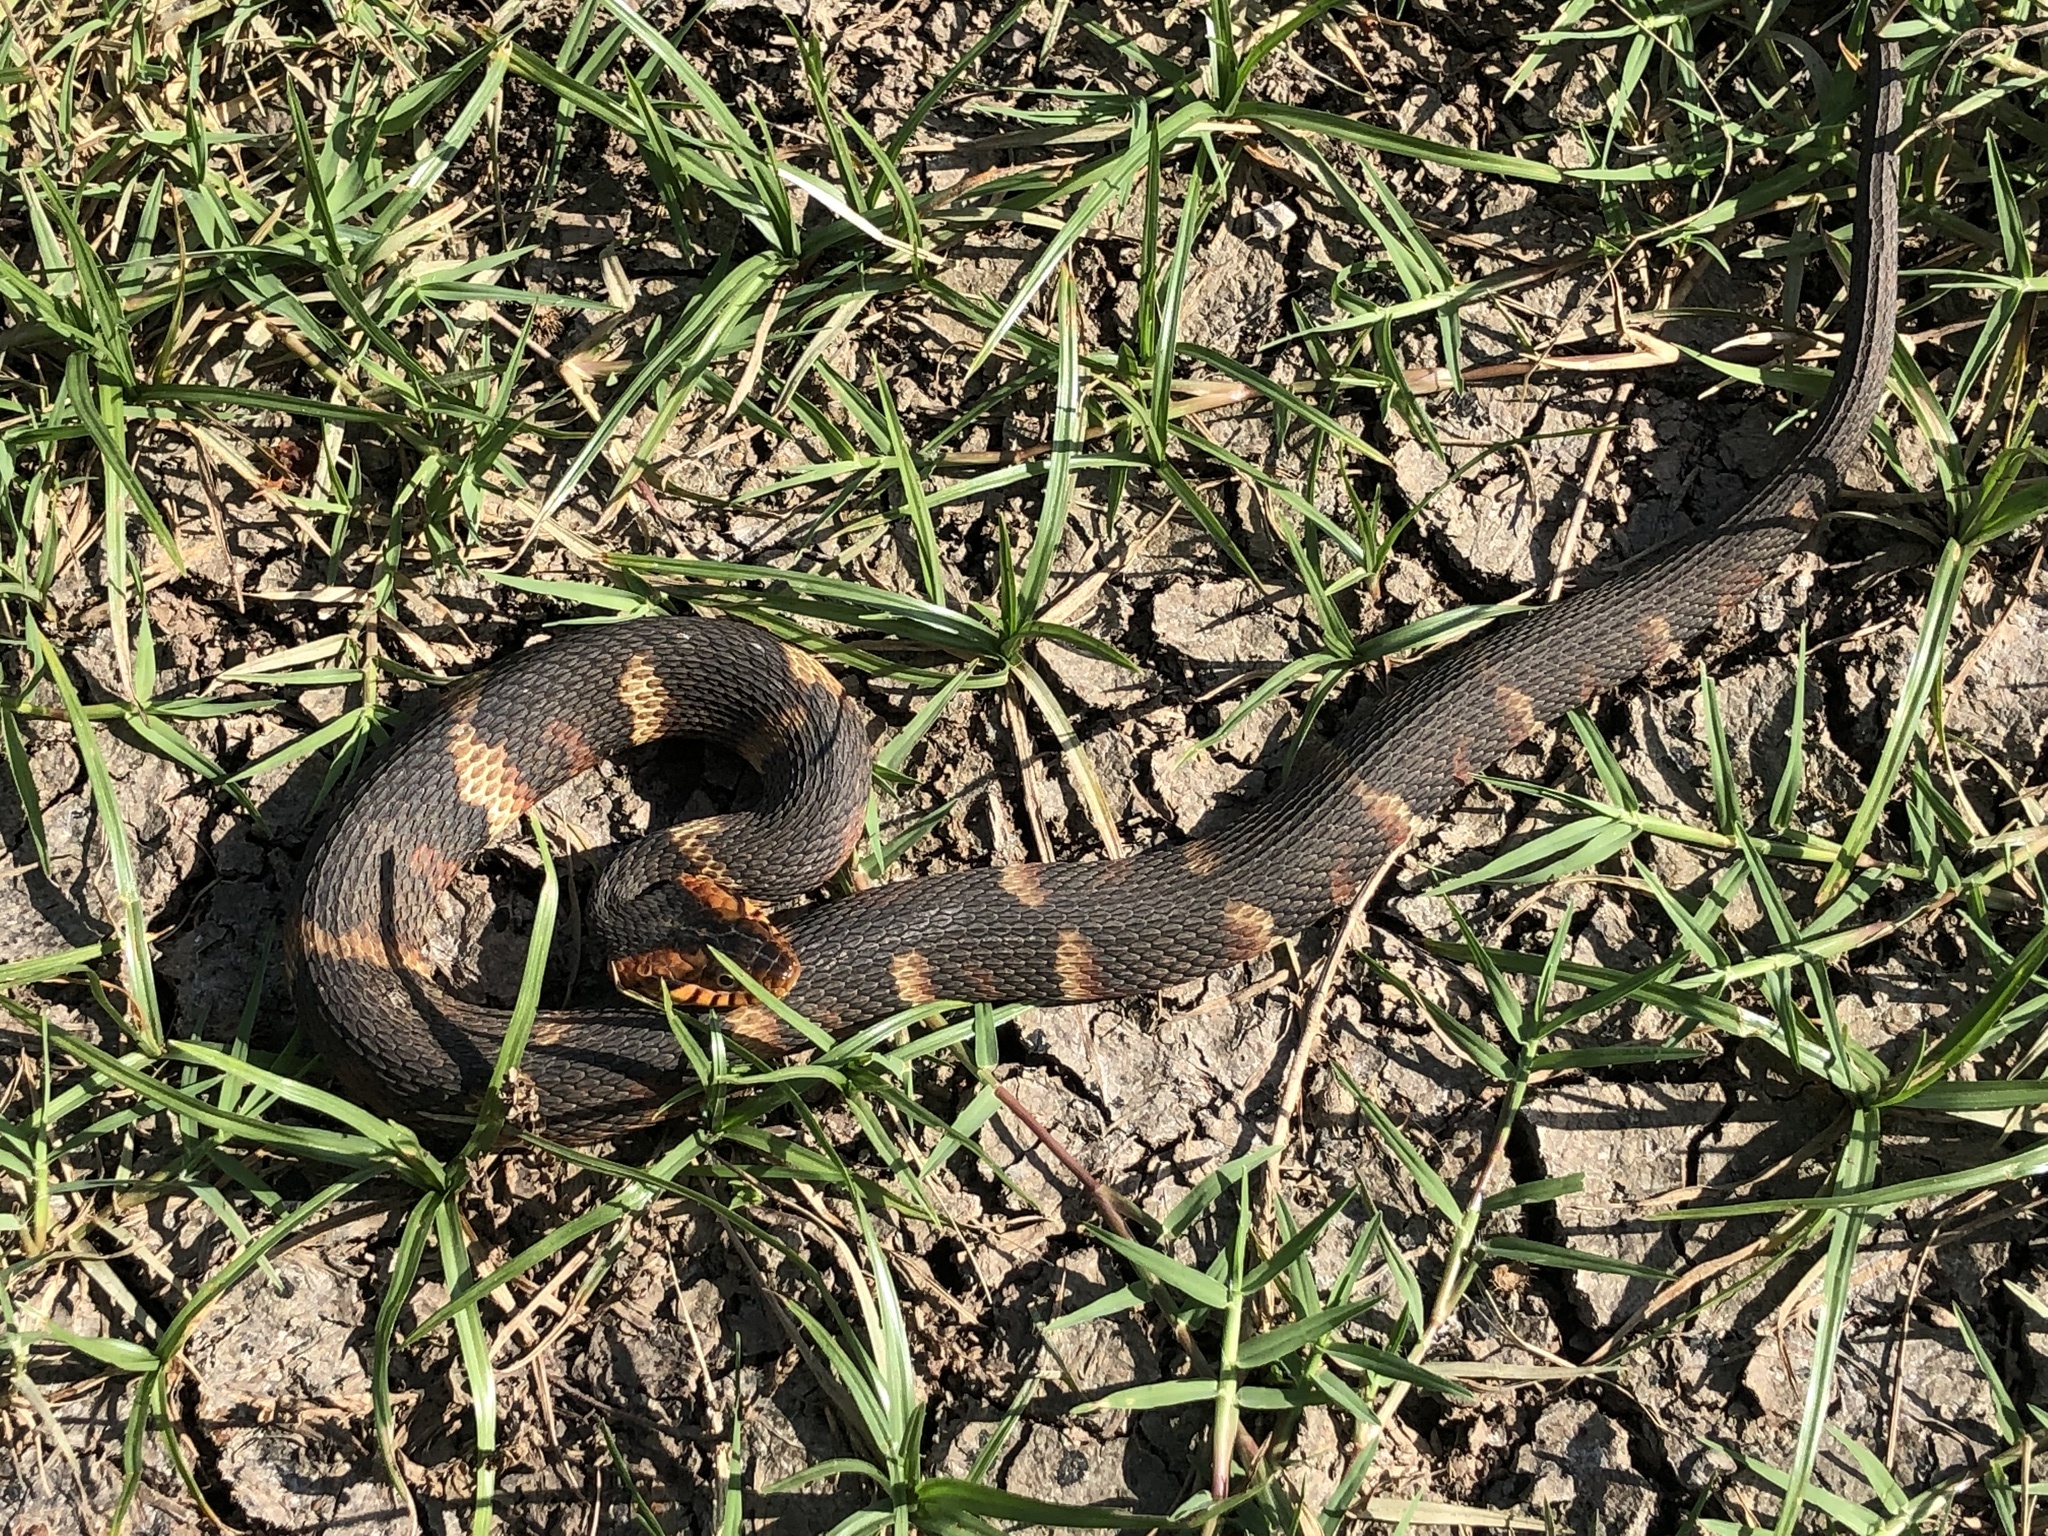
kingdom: Animalia
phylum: Chordata
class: Squamata
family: Colubridae
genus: Nerodia
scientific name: Nerodia fasciata
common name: Southern water snake
